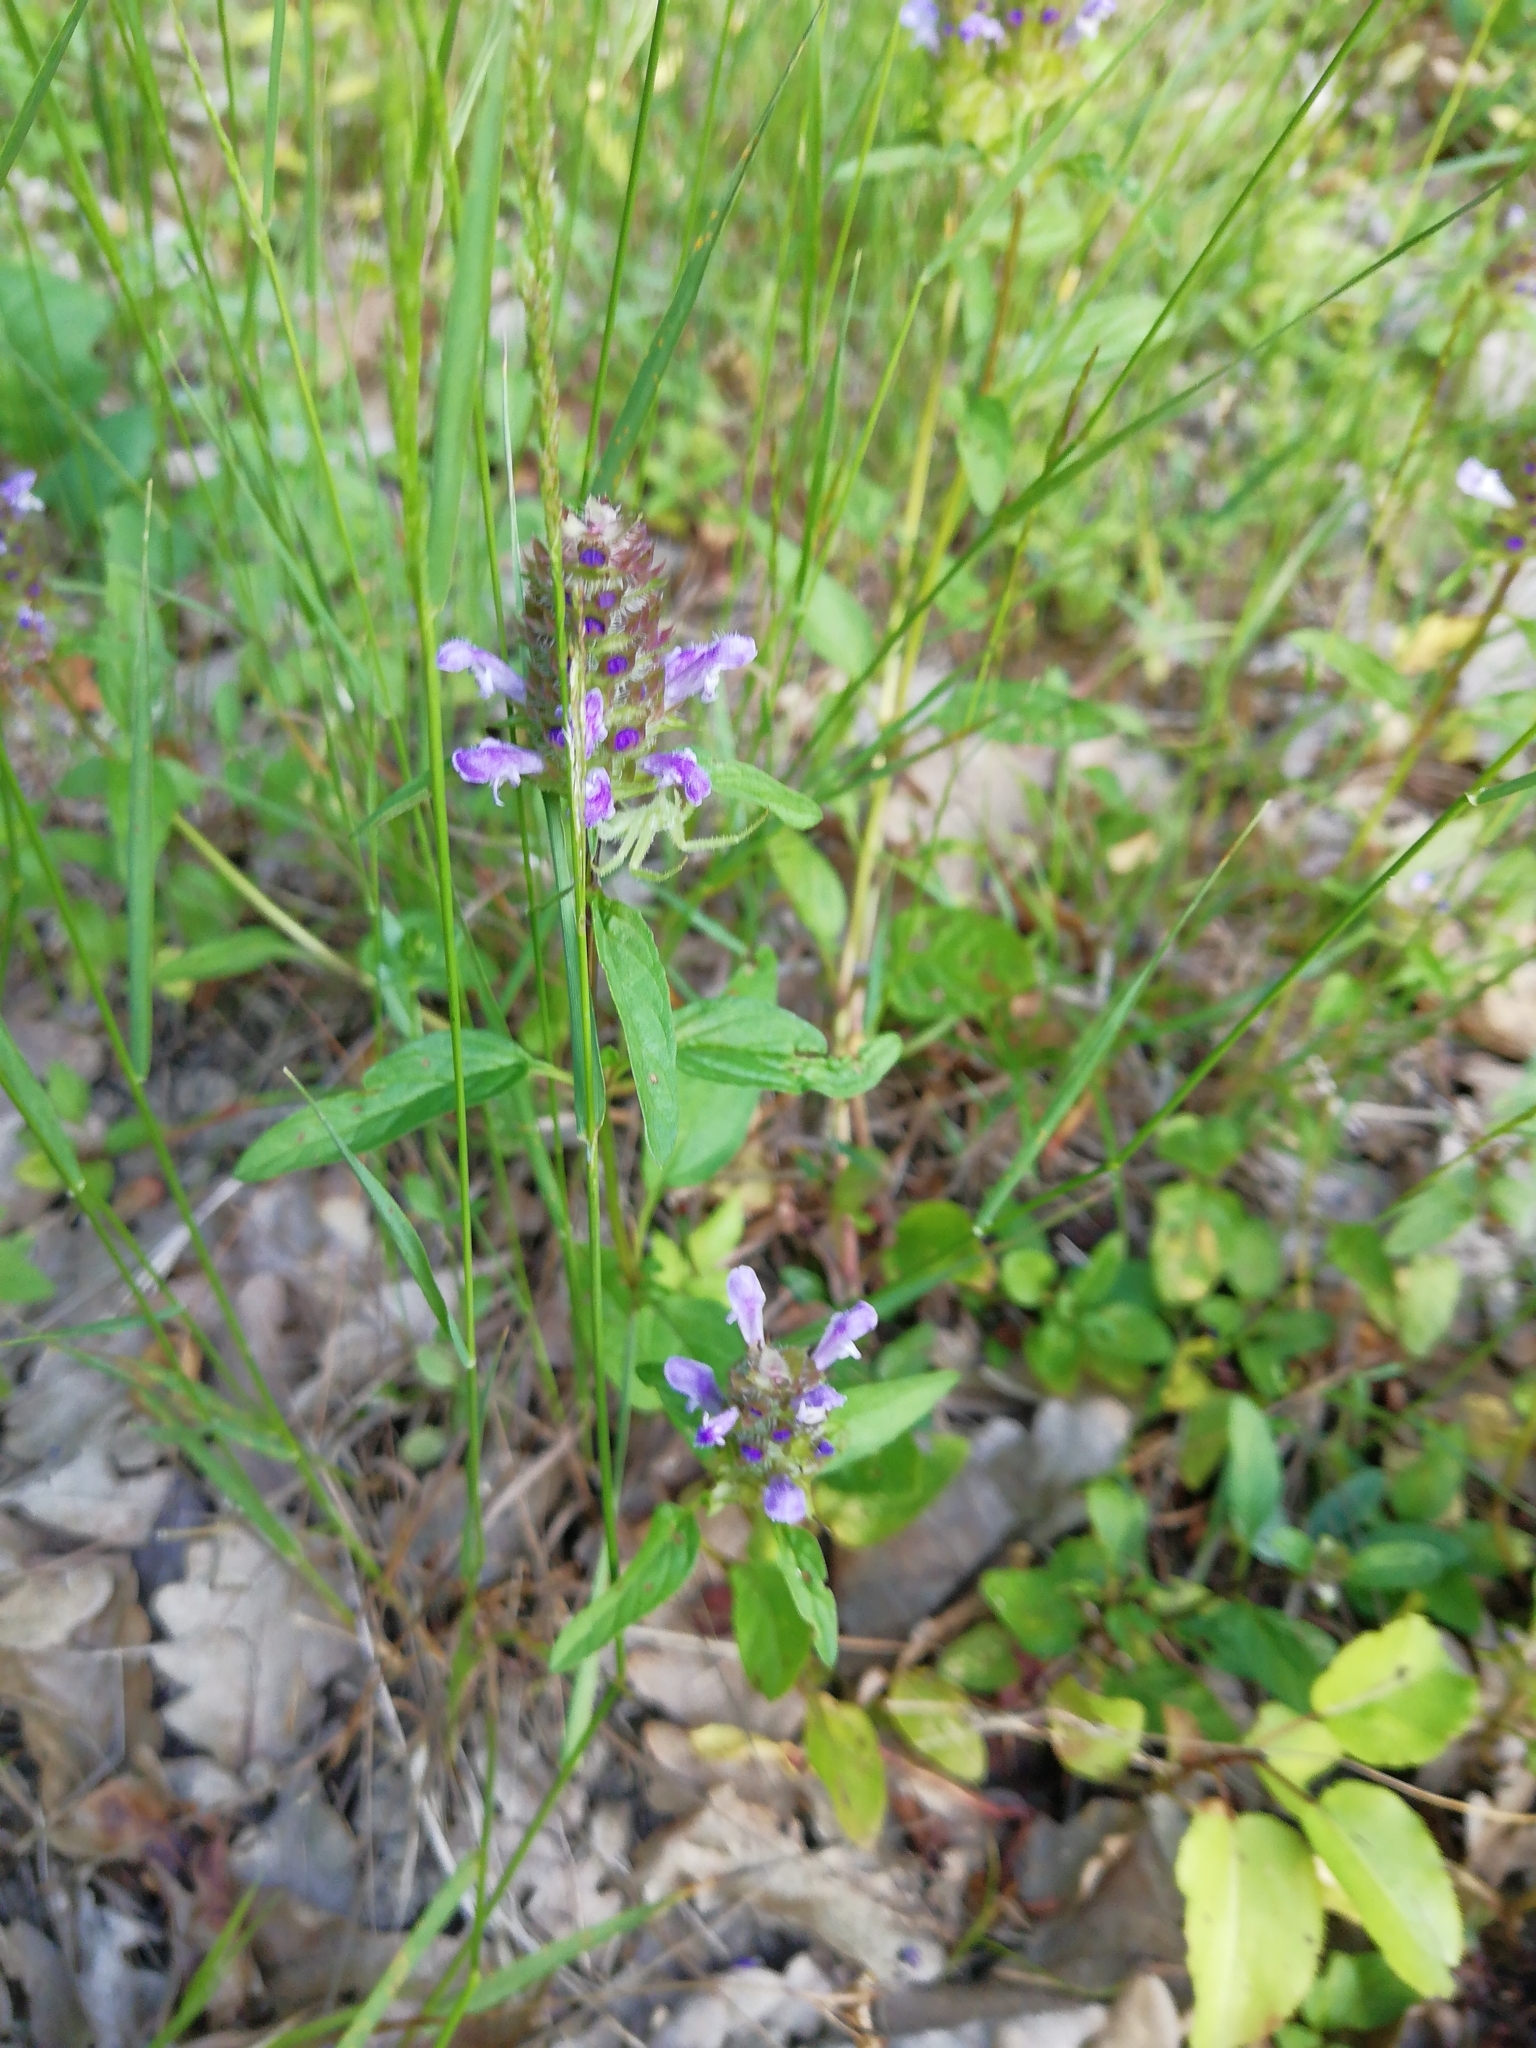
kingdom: Plantae
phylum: Tracheophyta
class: Magnoliopsida
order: Lamiales
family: Lamiaceae
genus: Prunella
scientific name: Prunella vulgaris
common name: Heal-all
